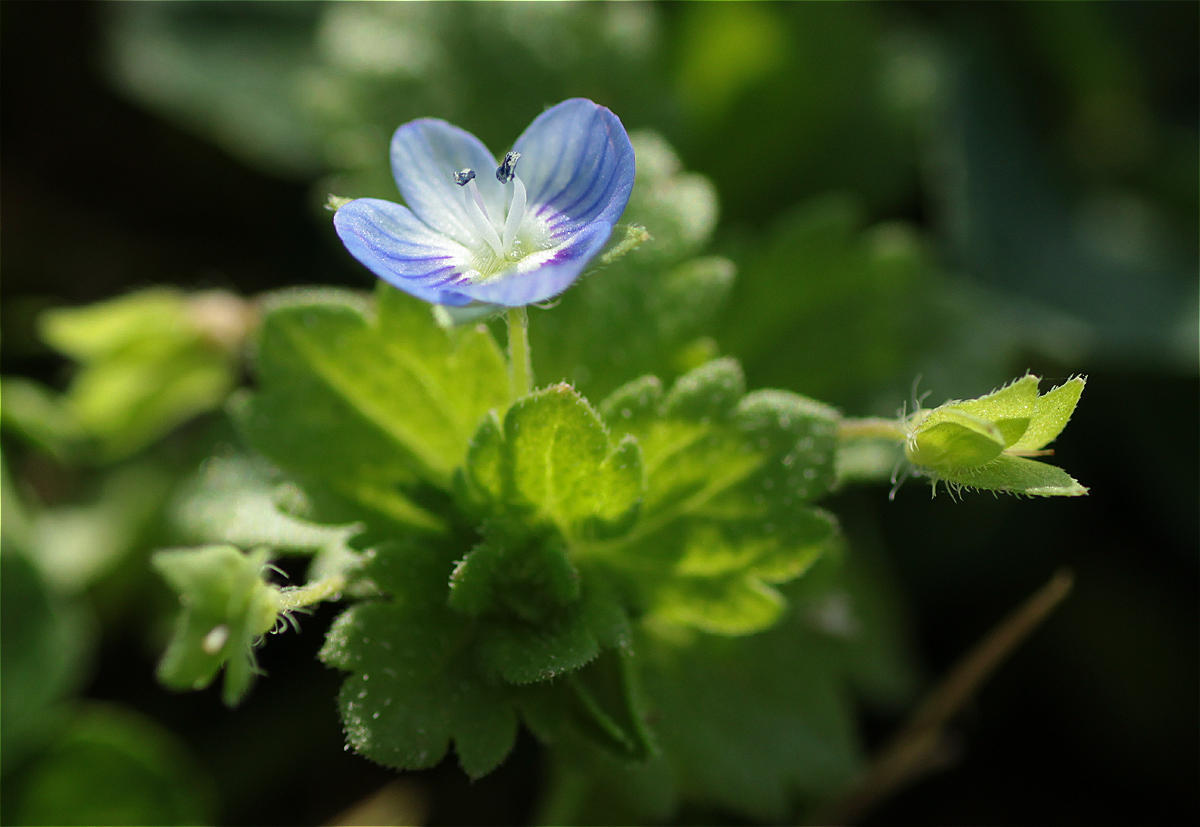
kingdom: Plantae
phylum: Tracheophyta
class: Magnoliopsida
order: Lamiales
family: Plantaginaceae
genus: Veronica
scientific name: Veronica persica
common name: Common field-speedwell
